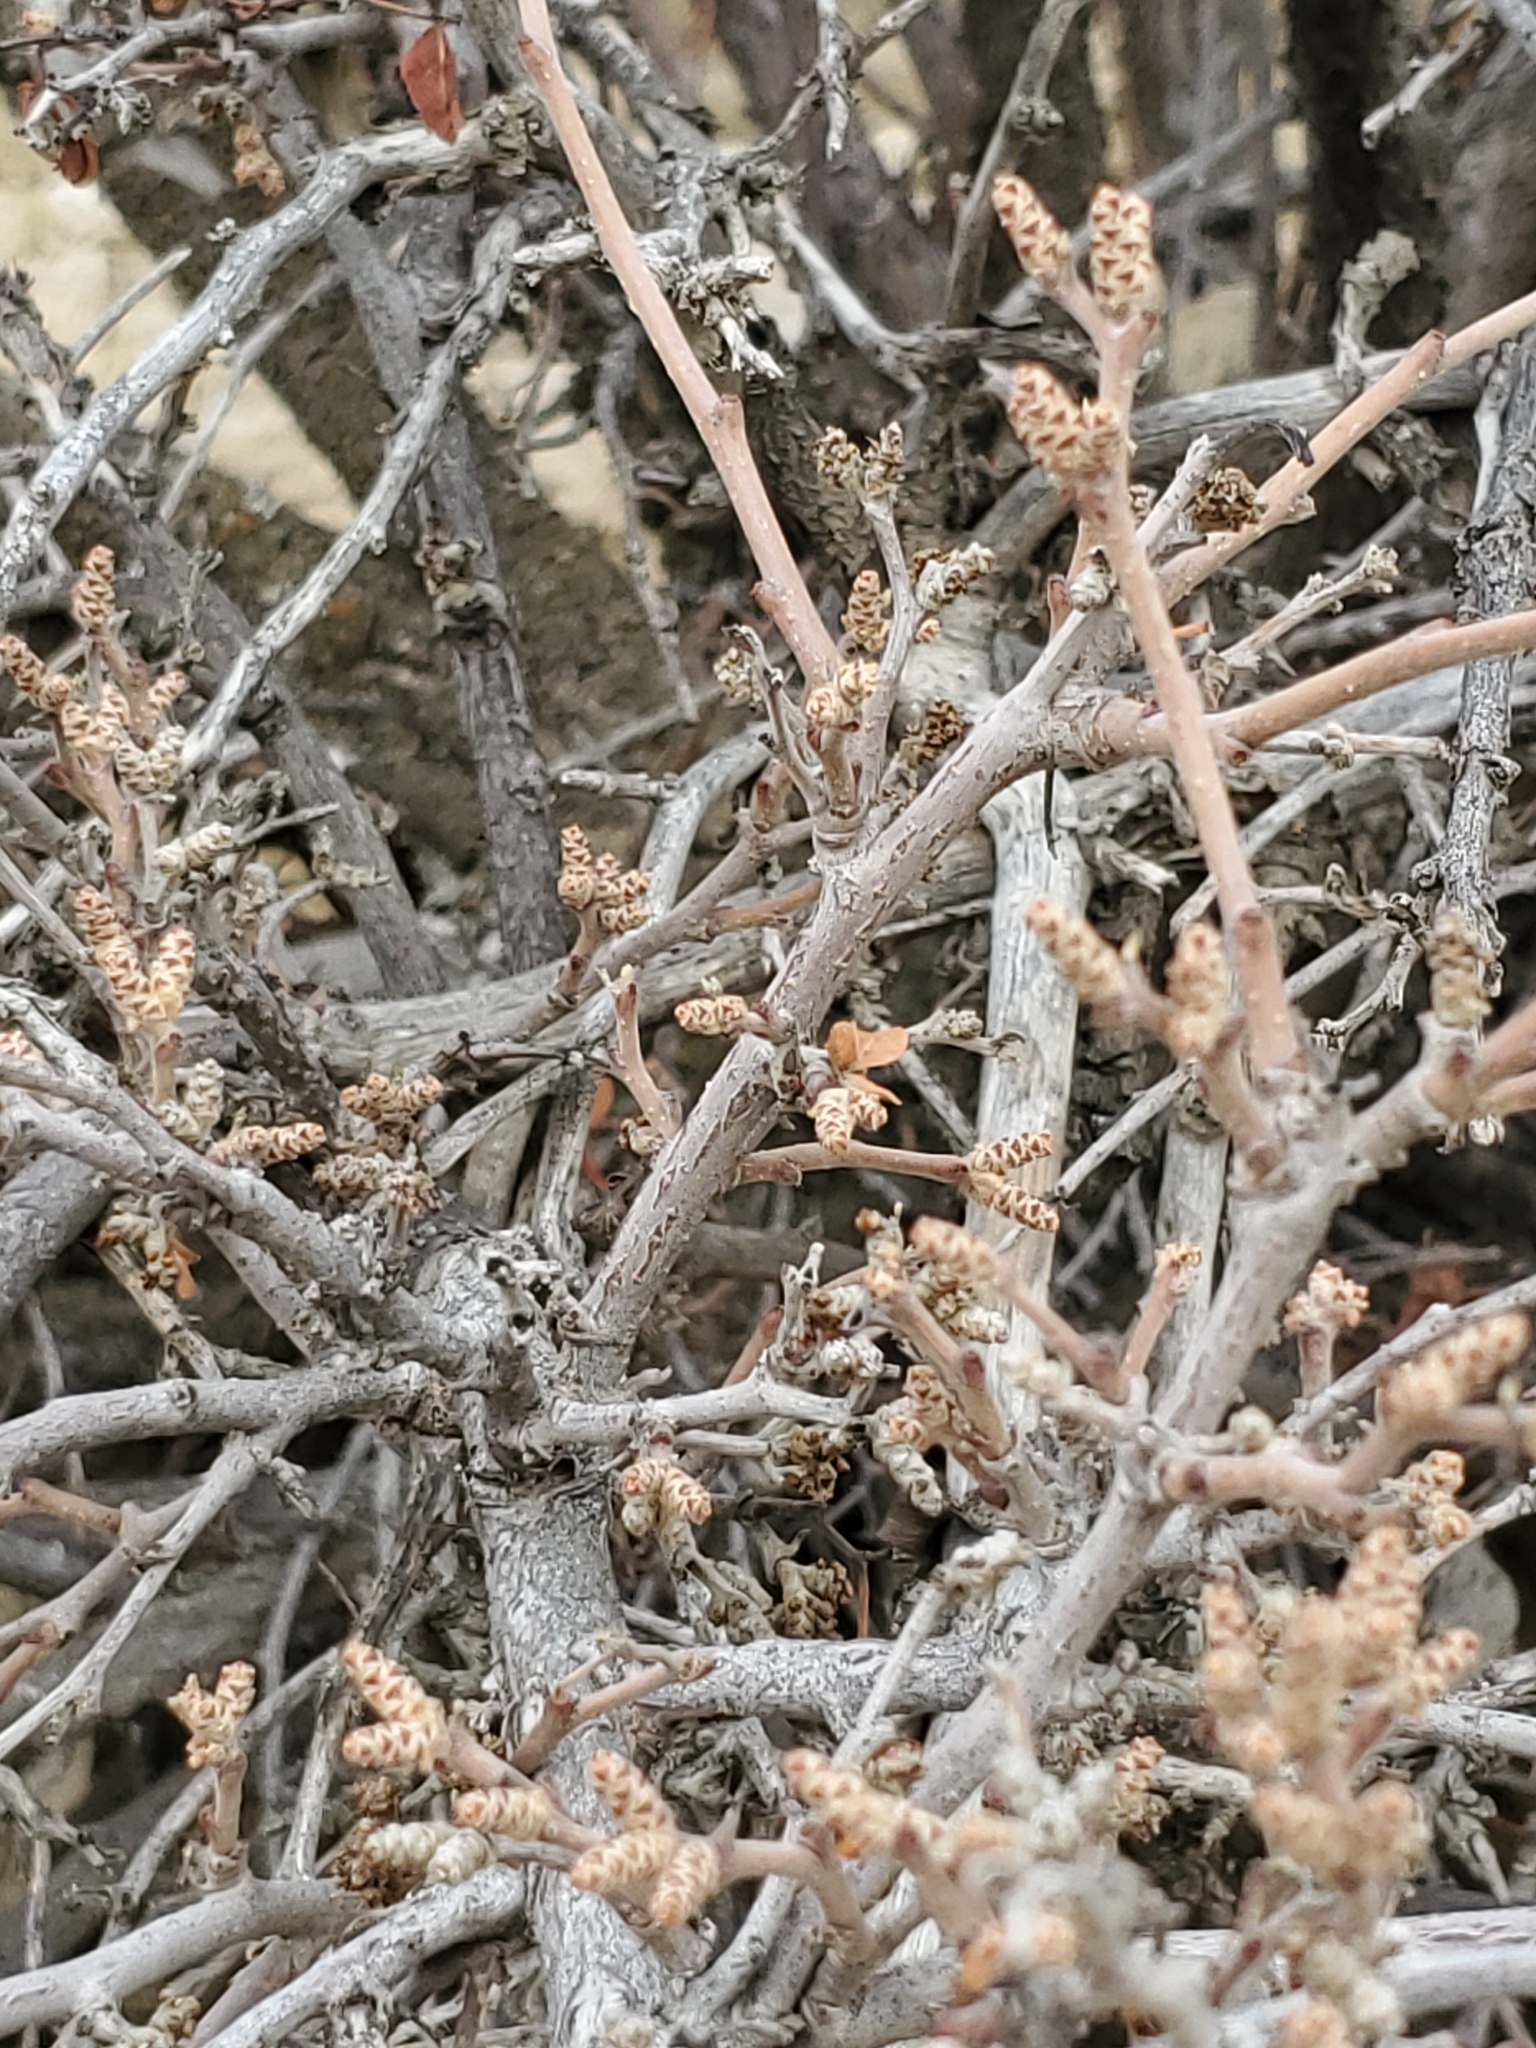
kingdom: Plantae
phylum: Tracheophyta
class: Magnoliopsida
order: Sapindales
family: Anacardiaceae
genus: Rhus
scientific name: Rhus aromatica
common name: Aromatic sumac
